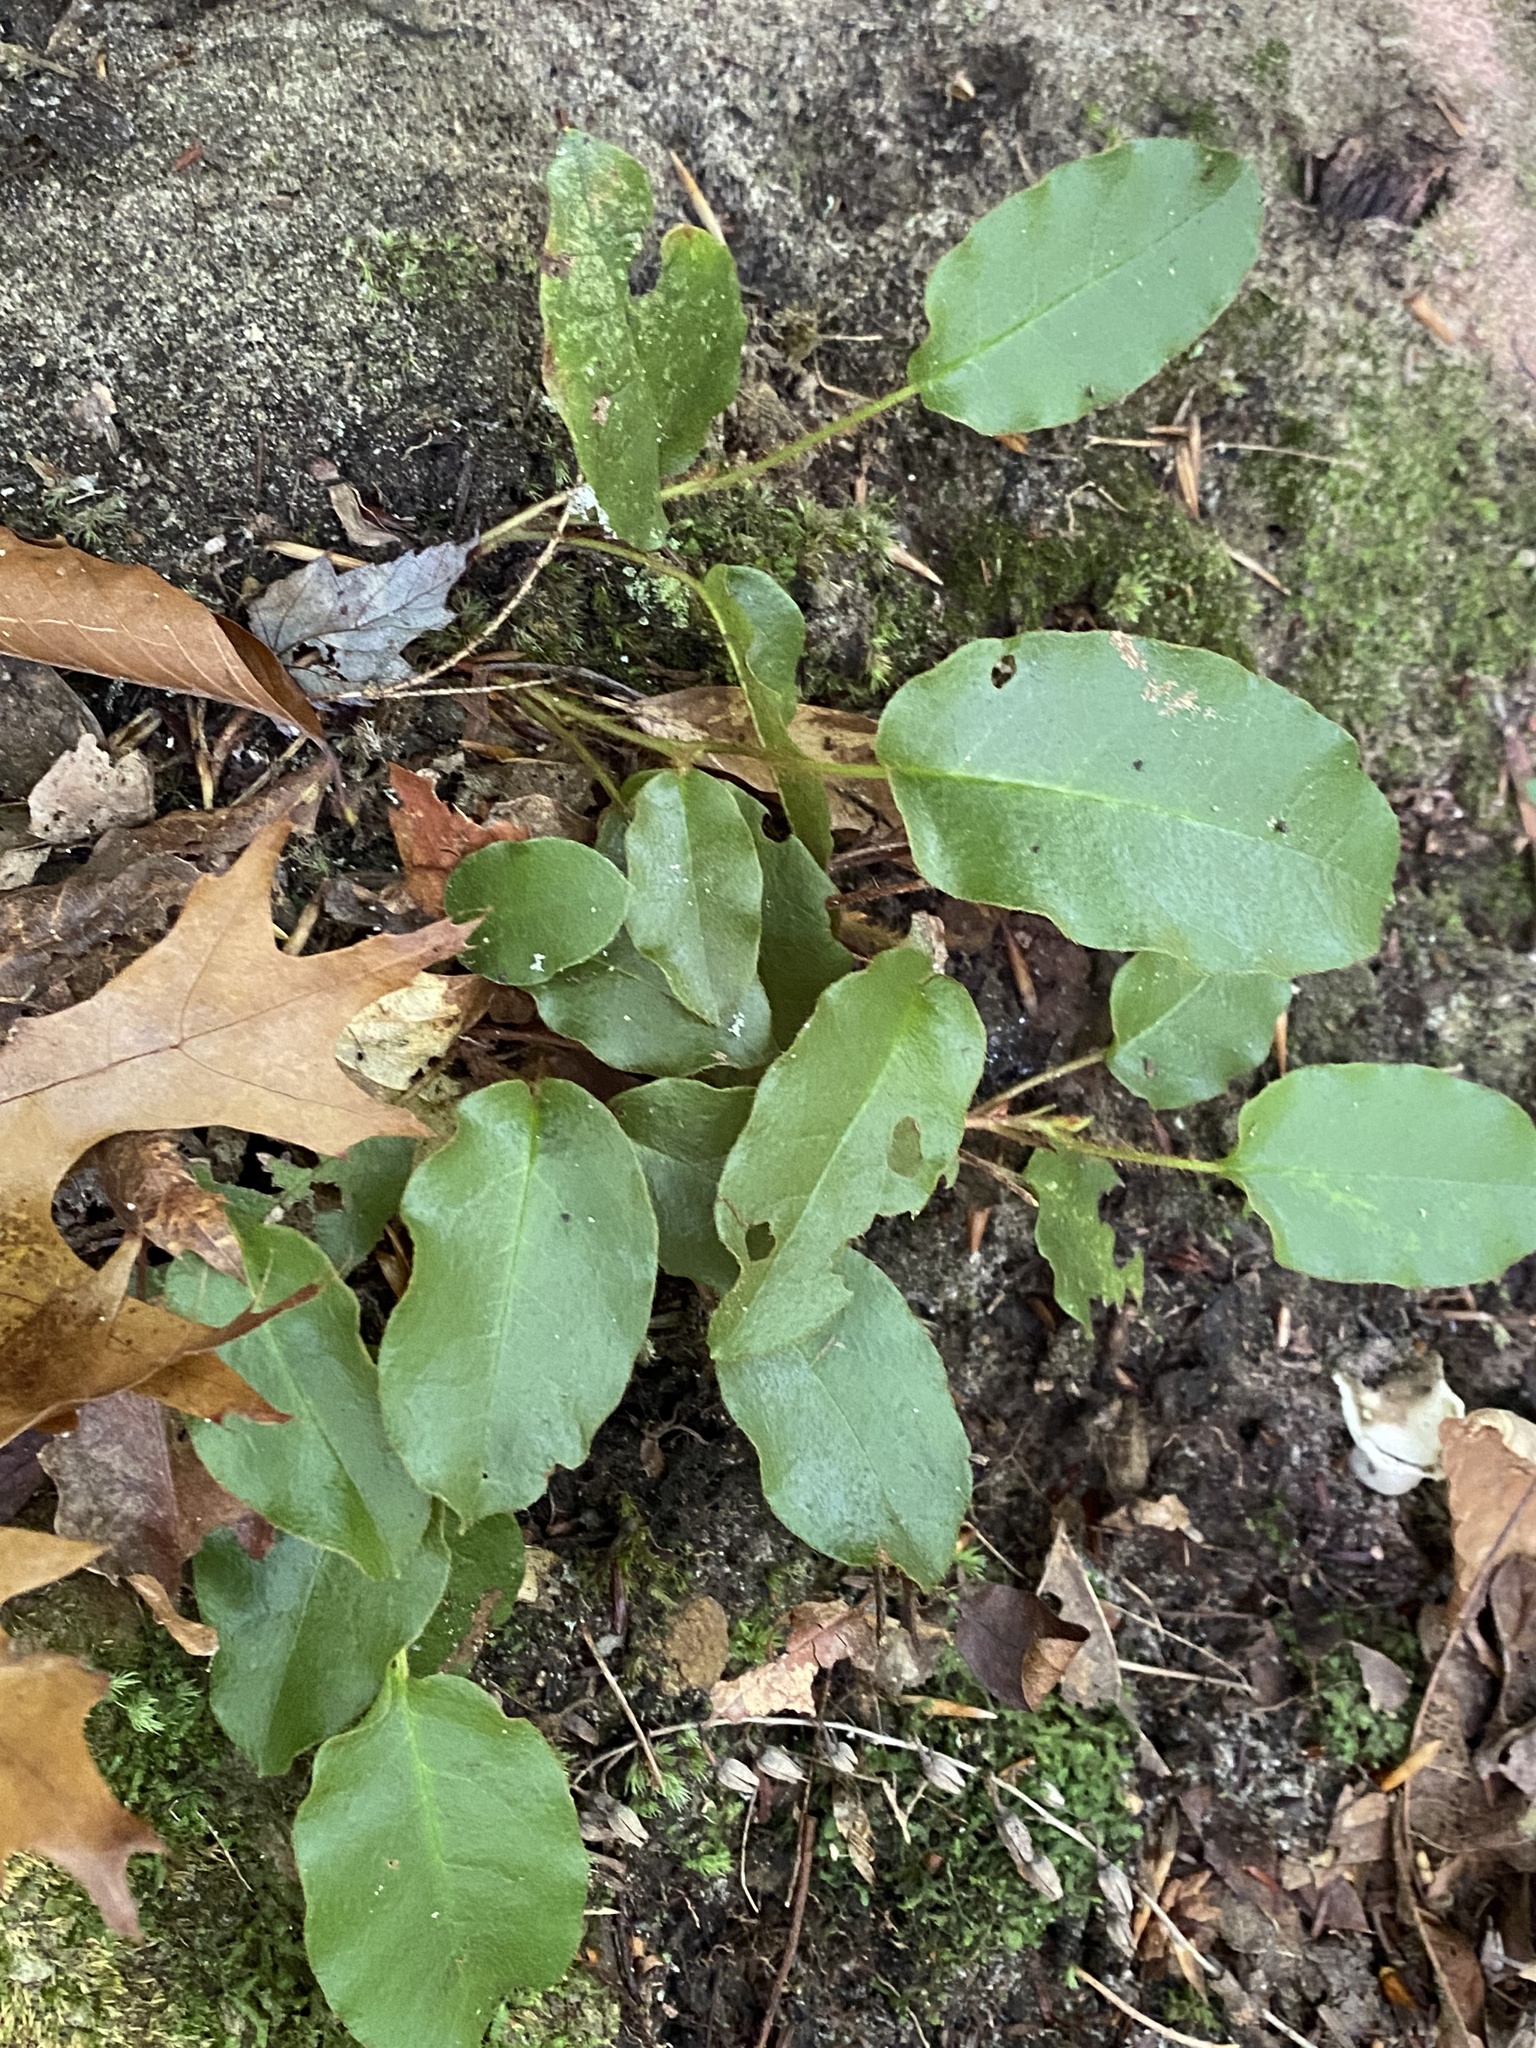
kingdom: Plantae
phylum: Tracheophyta
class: Magnoliopsida
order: Ericales
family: Ericaceae
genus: Epigaea
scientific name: Epigaea repens
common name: Gravelroot
